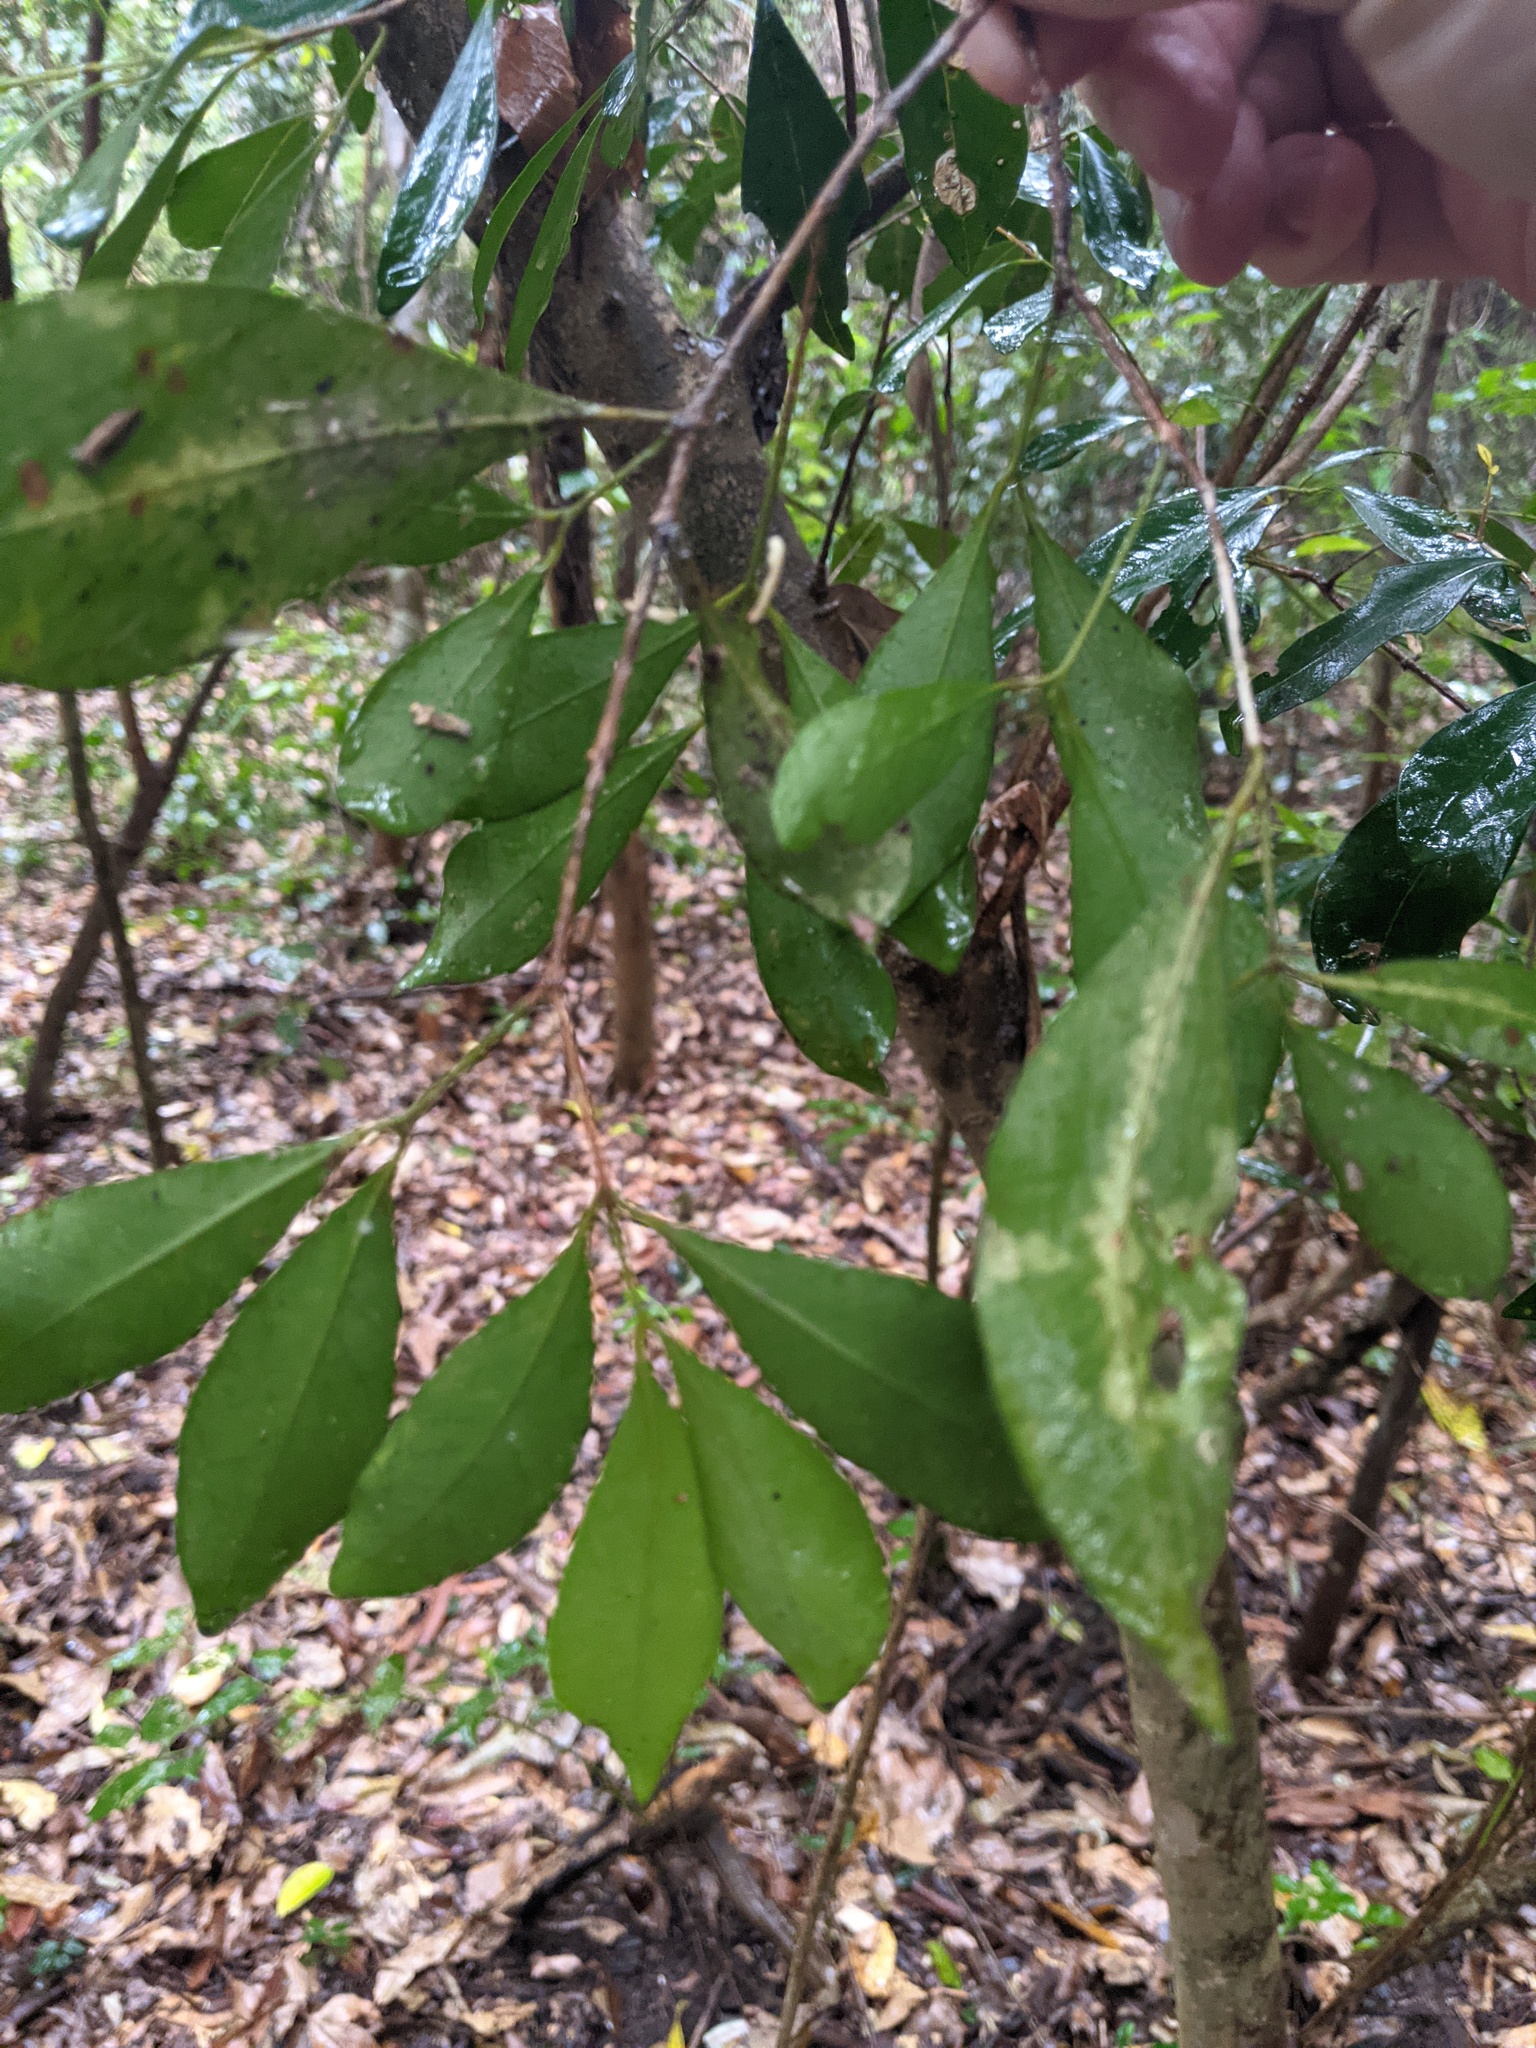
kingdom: Plantae
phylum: Tracheophyta
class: Magnoliopsida
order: Myrtales
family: Myrtaceae
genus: Syzygium
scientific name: Syzygium smithii
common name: Lilly-pilly
